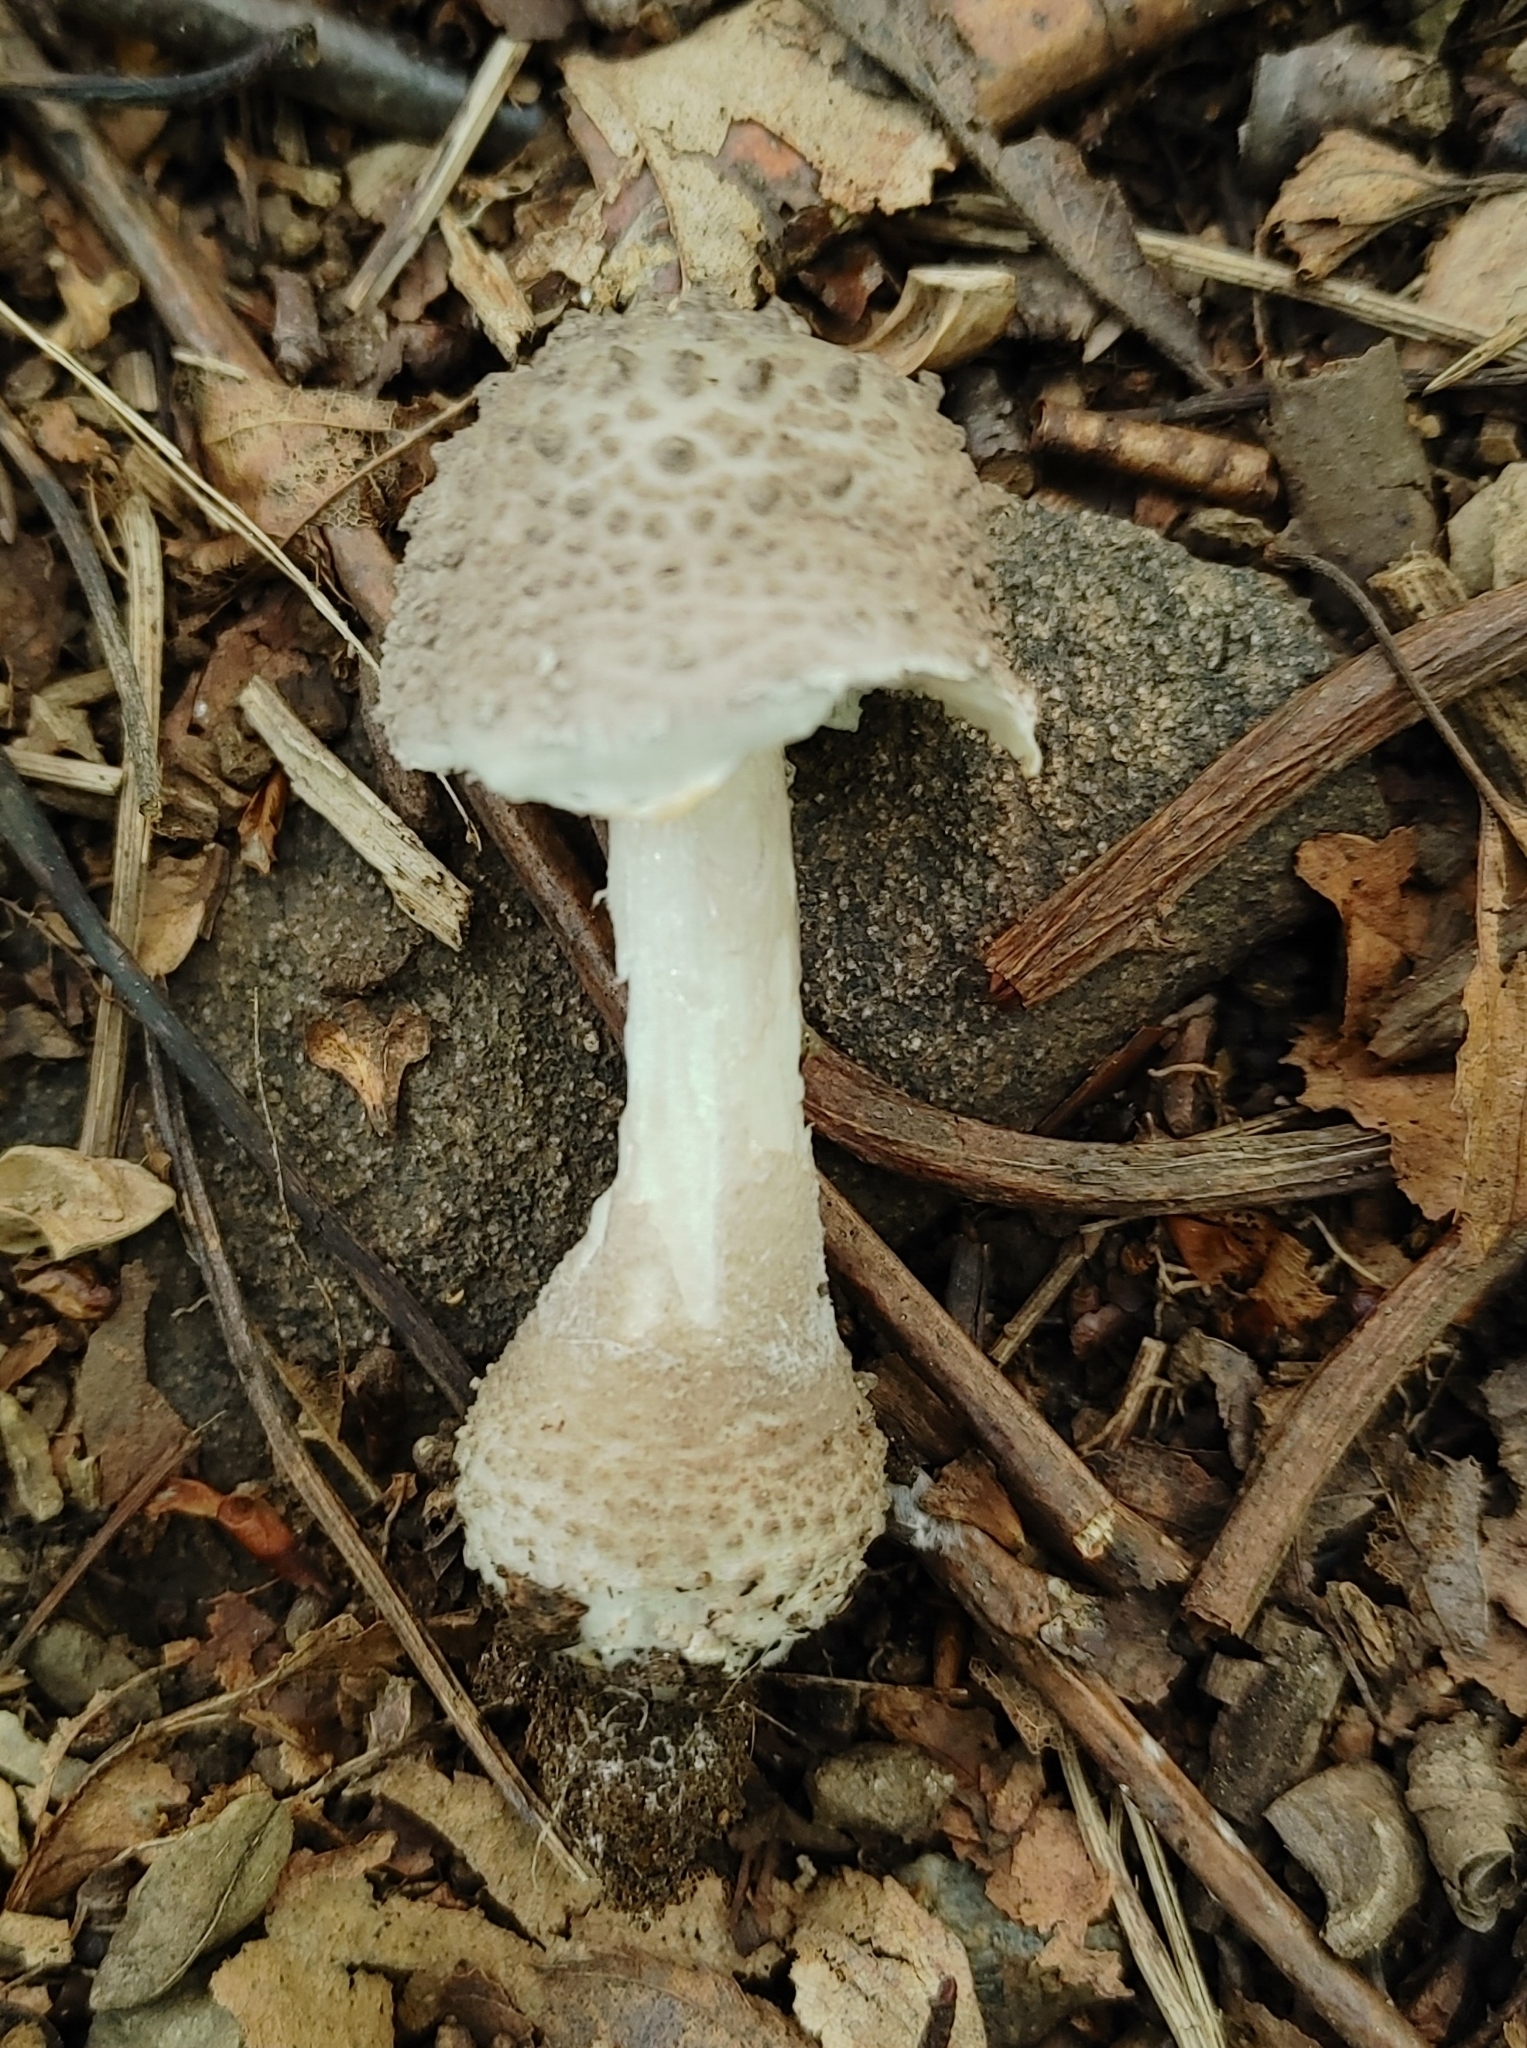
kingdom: Fungi
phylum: Basidiomycota
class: Agaricomycetes
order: Agaricales
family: Amanitaceae
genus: Amanita
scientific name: Amanita onusta
